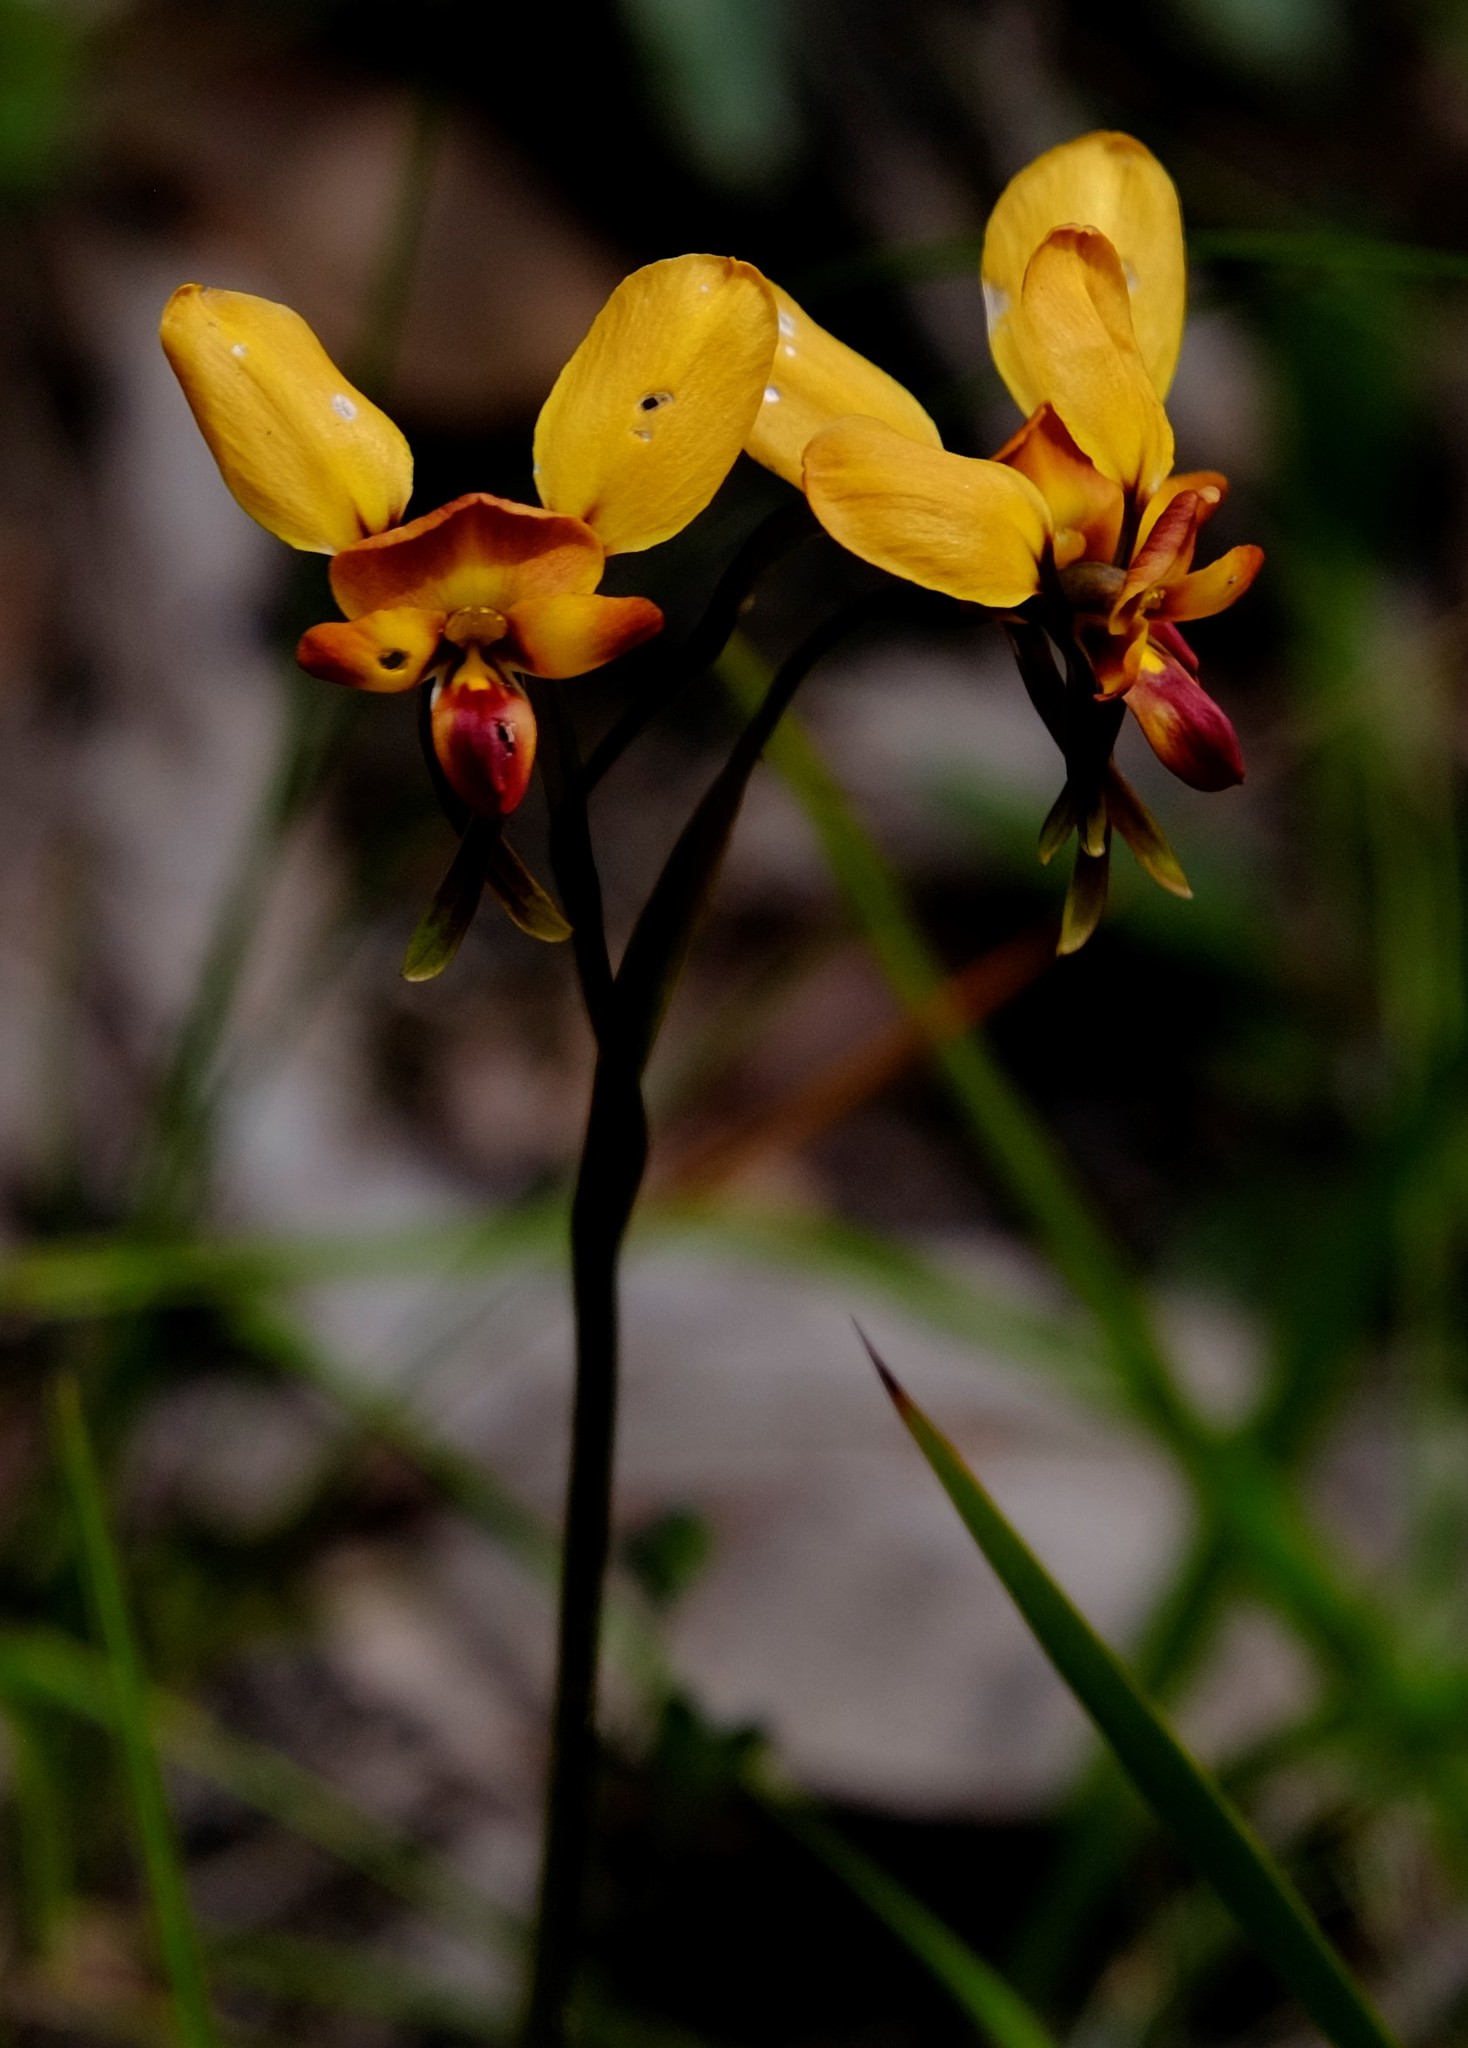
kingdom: Plantae
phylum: Tracheophyta
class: Liliopsida
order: Asparagales
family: Orchidaceae
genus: Diuris
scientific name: Diuris orientis
